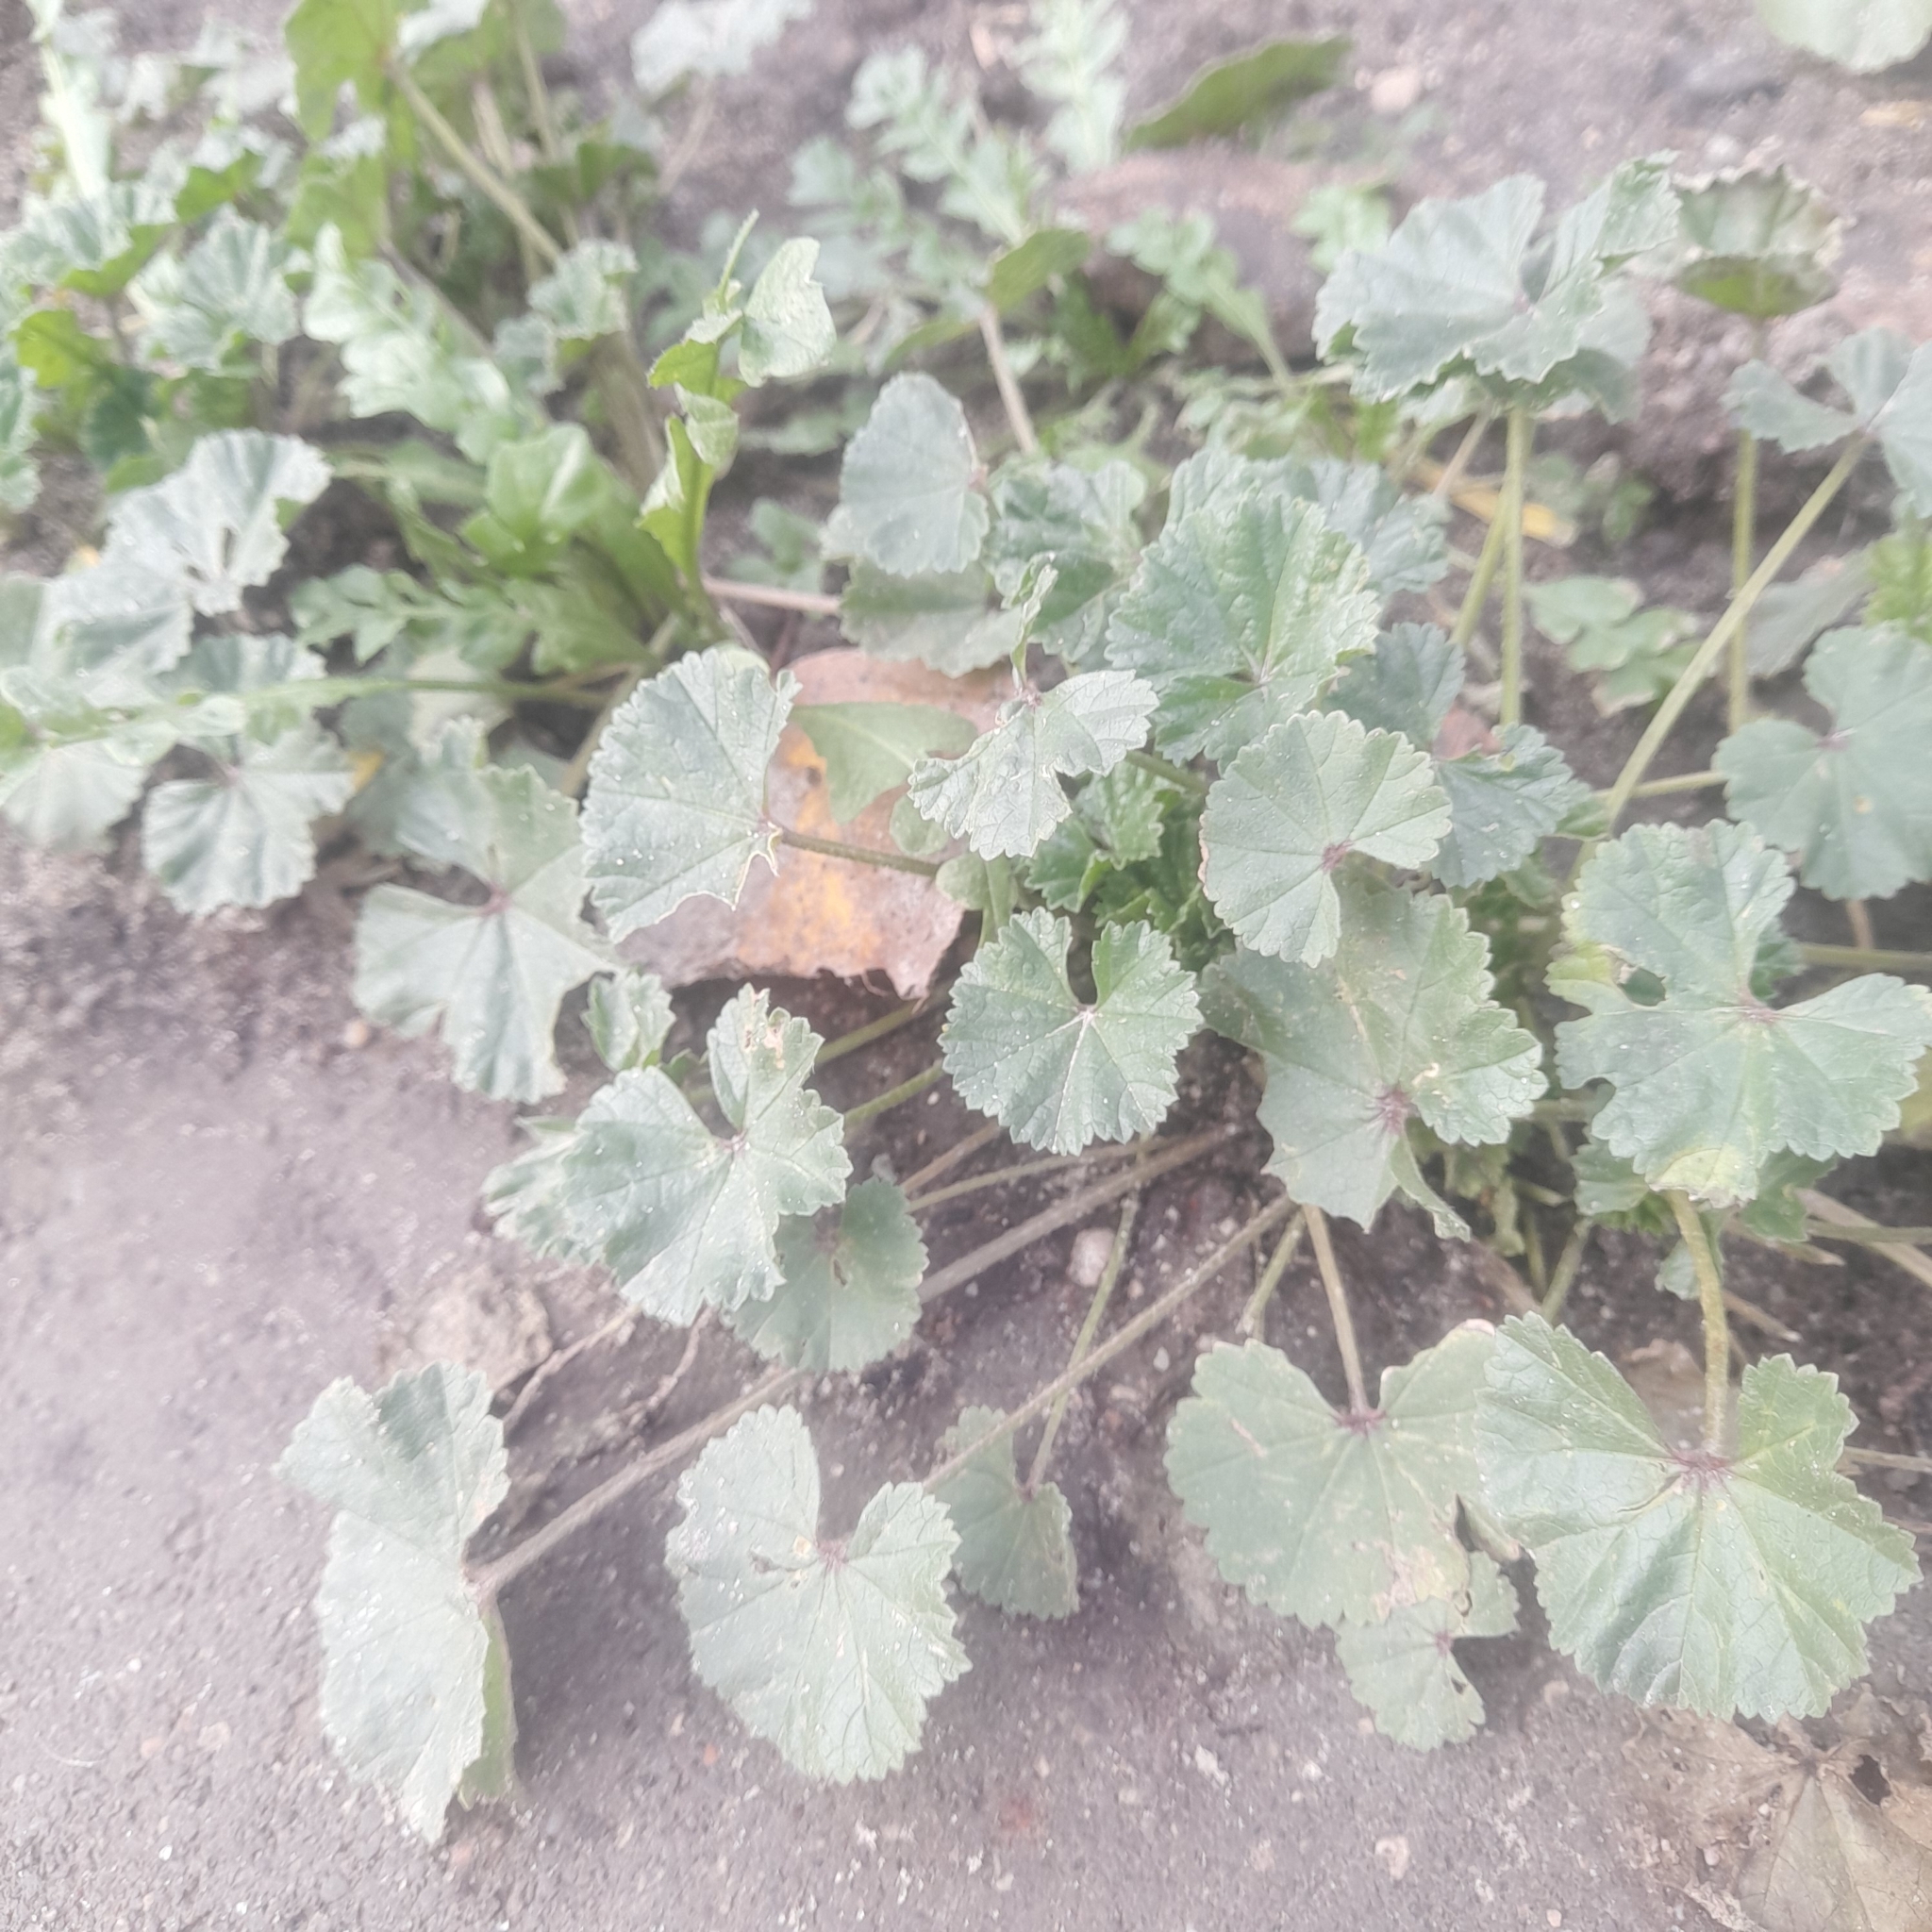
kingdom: Plantae
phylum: Tracheophyta
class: Magnoliopsida
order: Malvales
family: Malvaceae
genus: Malva
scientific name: Malva neglecta
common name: Common mallow
